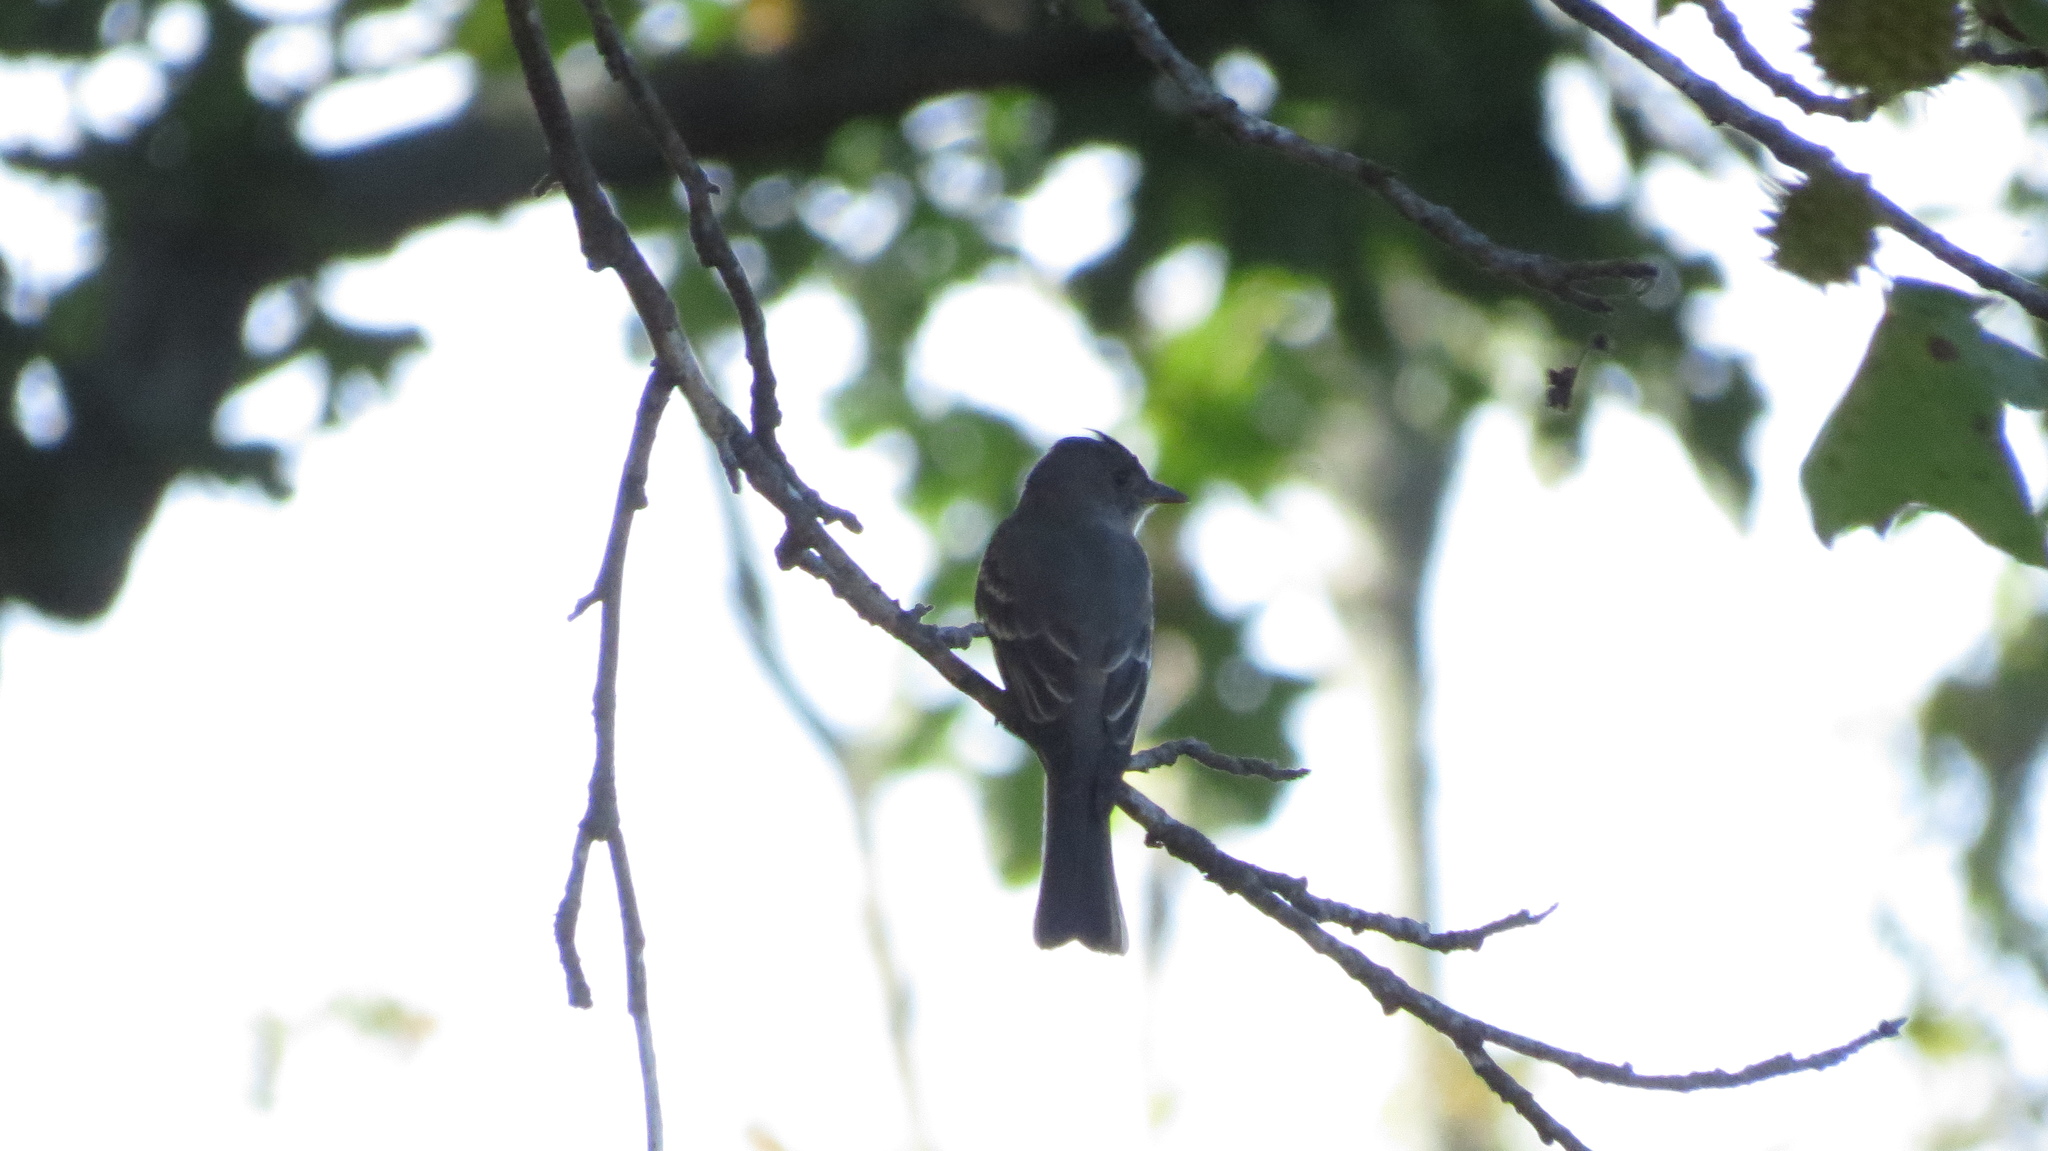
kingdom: Animalia
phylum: Chordata
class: Aves
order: Passeriformes
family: Tyrannidae
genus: Contopus
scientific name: Contopus virens
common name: Eastern wood-pewee
